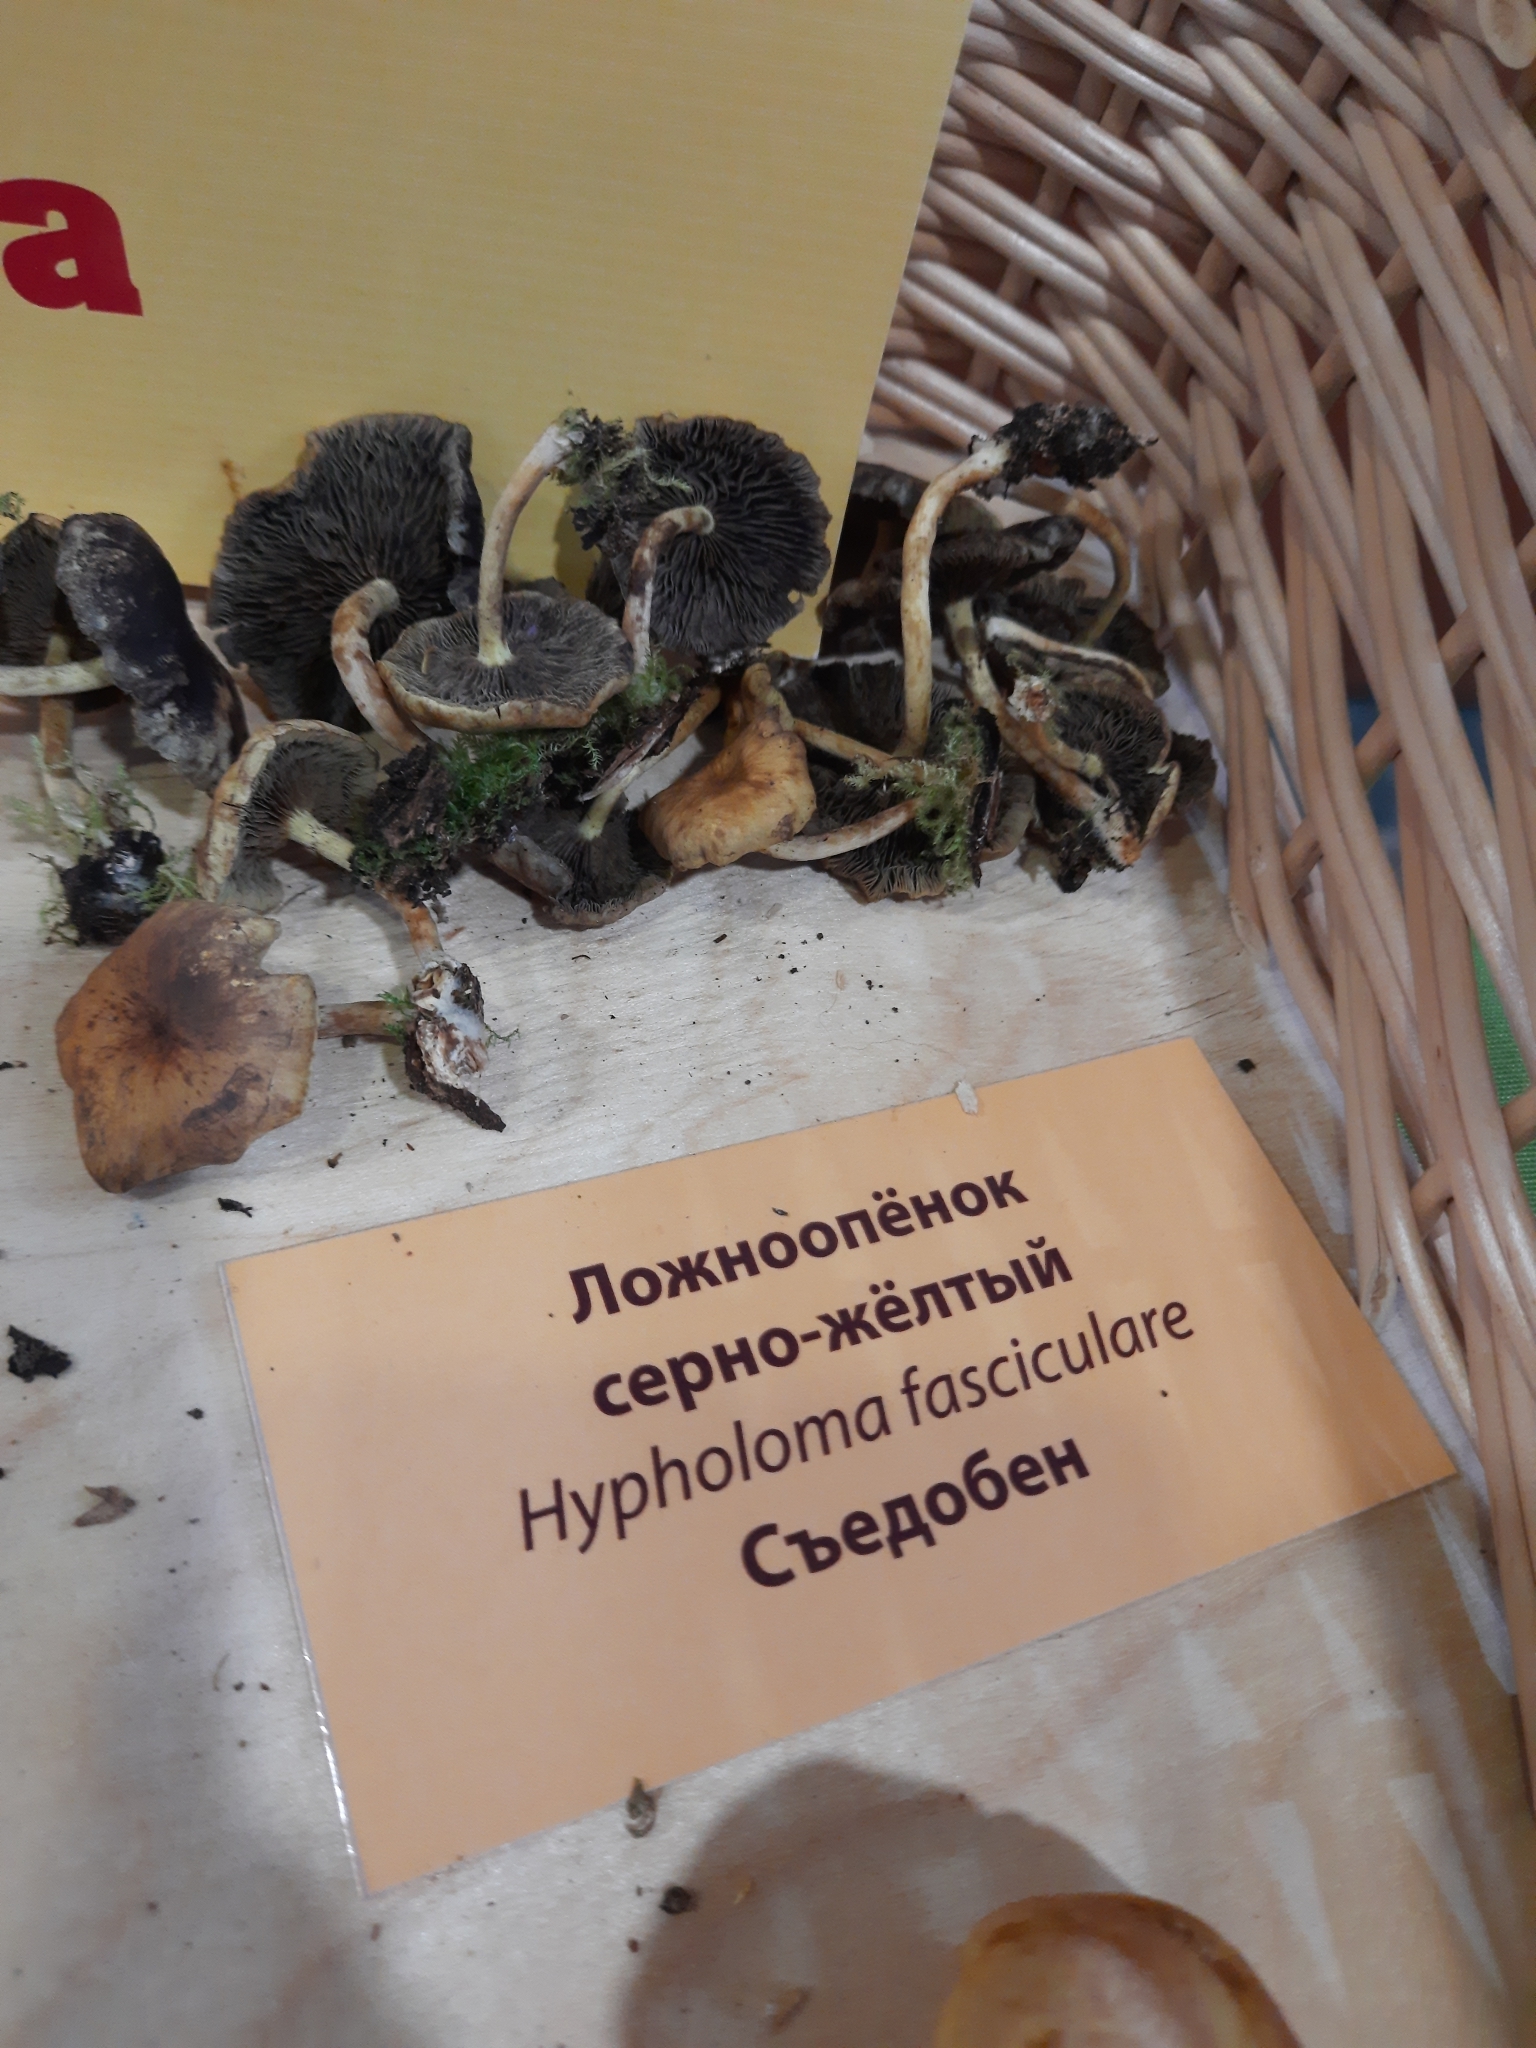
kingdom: Fungi
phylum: Basidiomycota
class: Agaricomycetes
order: Agaricales
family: Strophariaceae
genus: Hypholoma
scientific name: Hypholoma fasciculare
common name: Sulphur tuft
